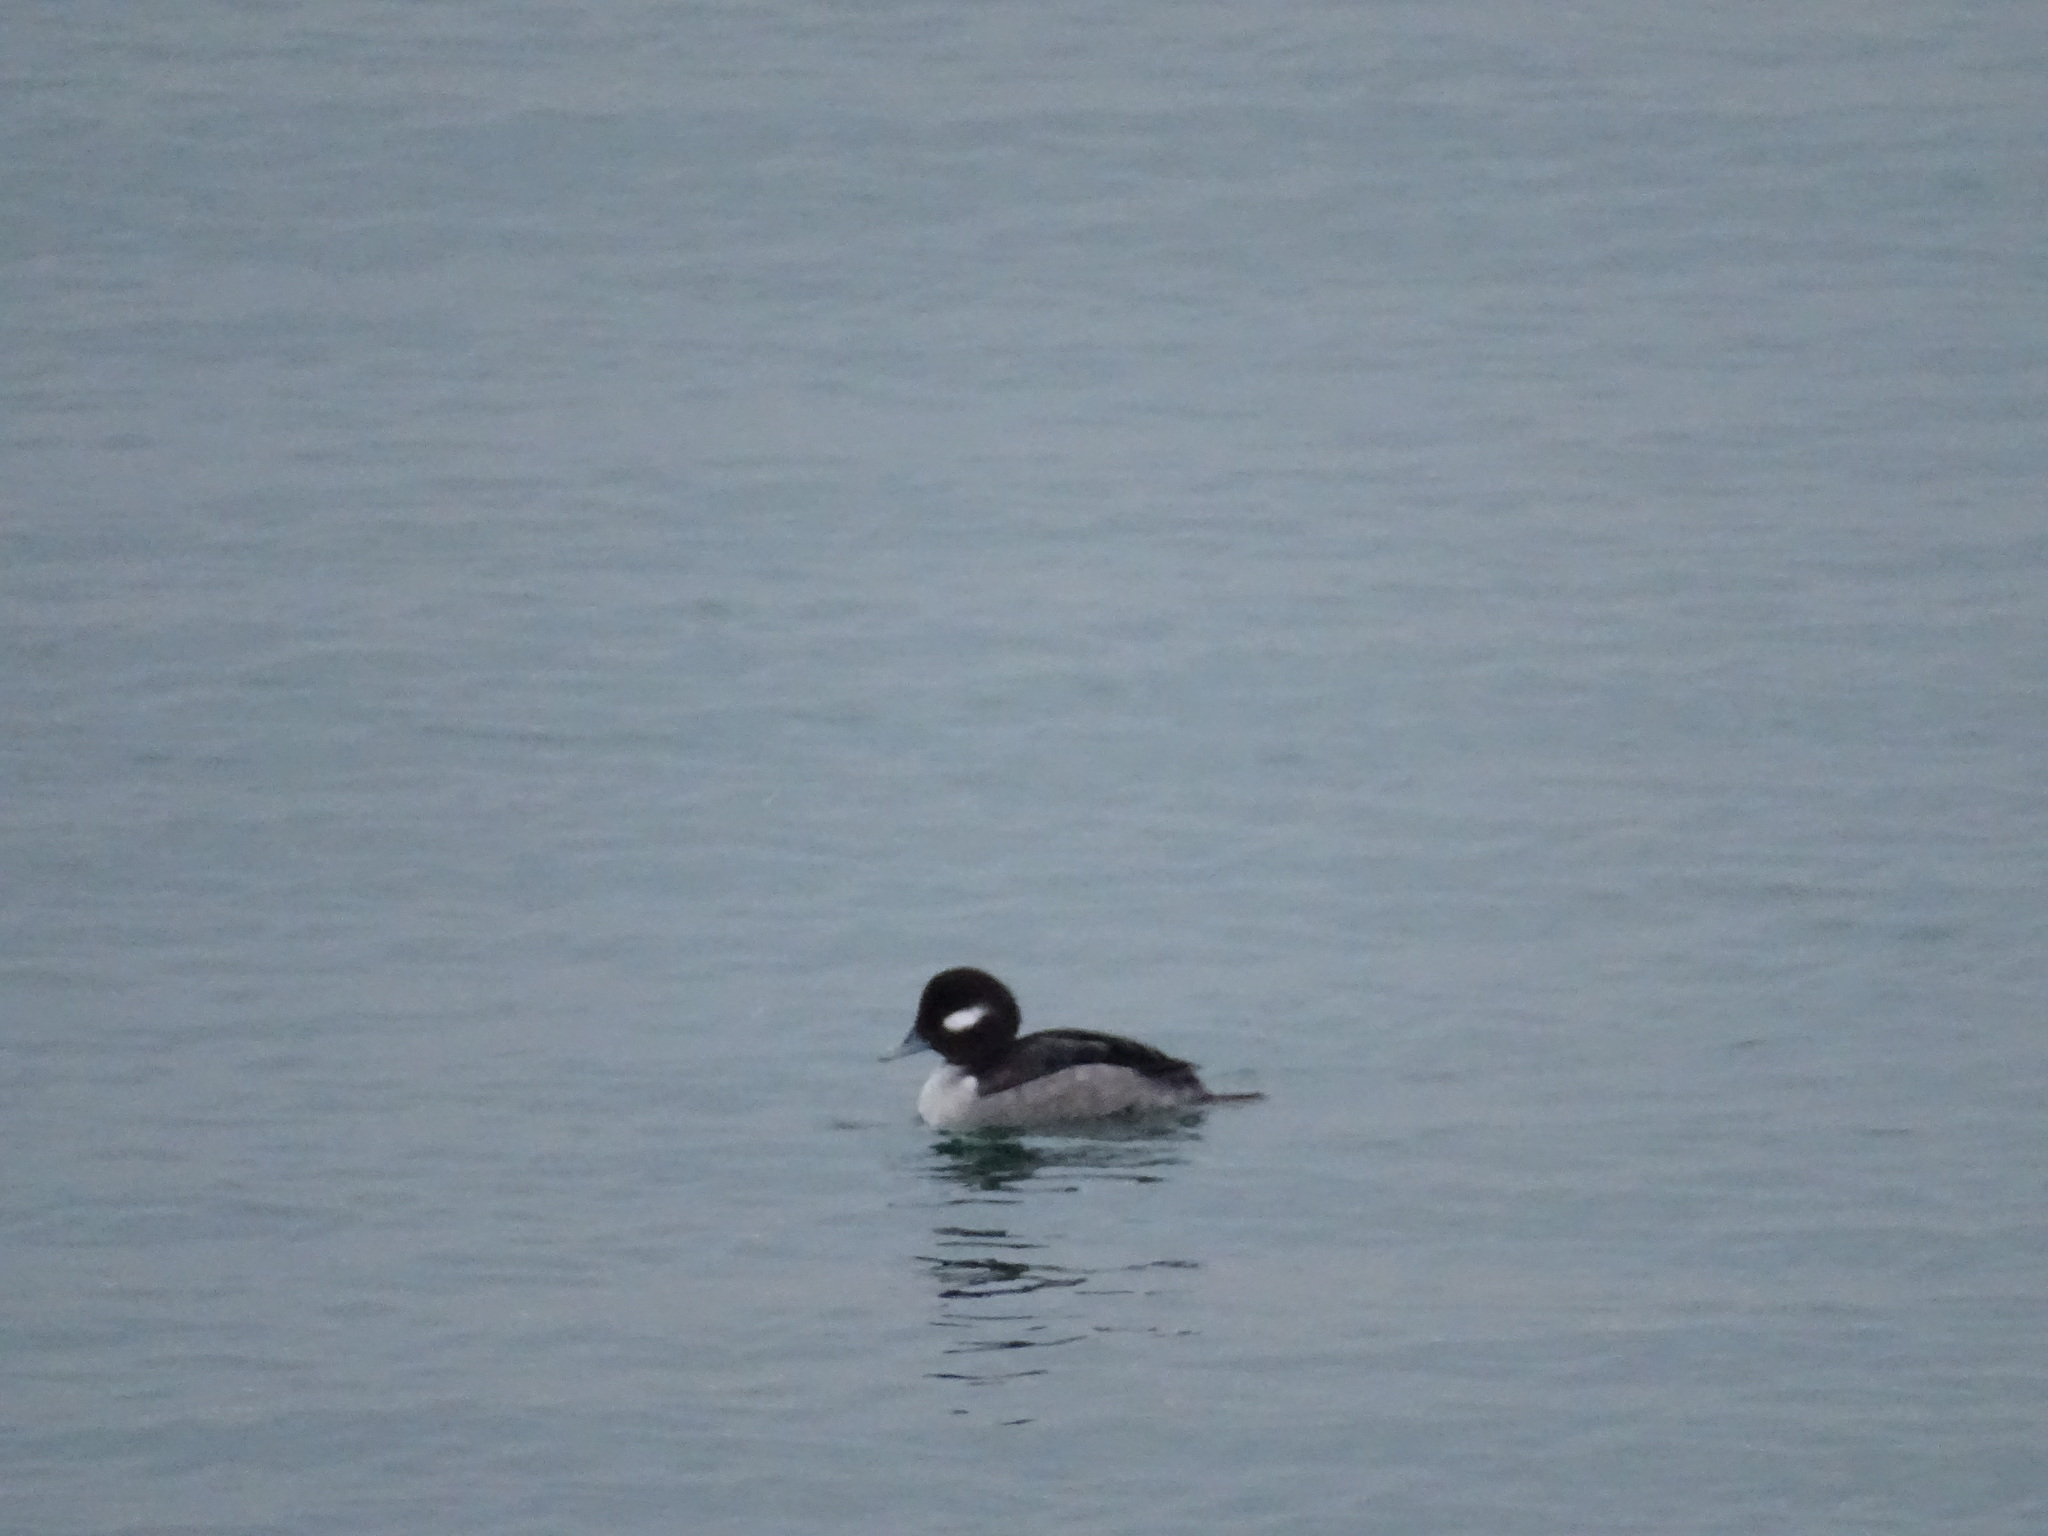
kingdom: Animalia
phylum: Chordata
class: Aves
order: Anseriformes
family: Anatidae
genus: Bucephala
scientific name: Bucephala albeola
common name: Bufflehead
